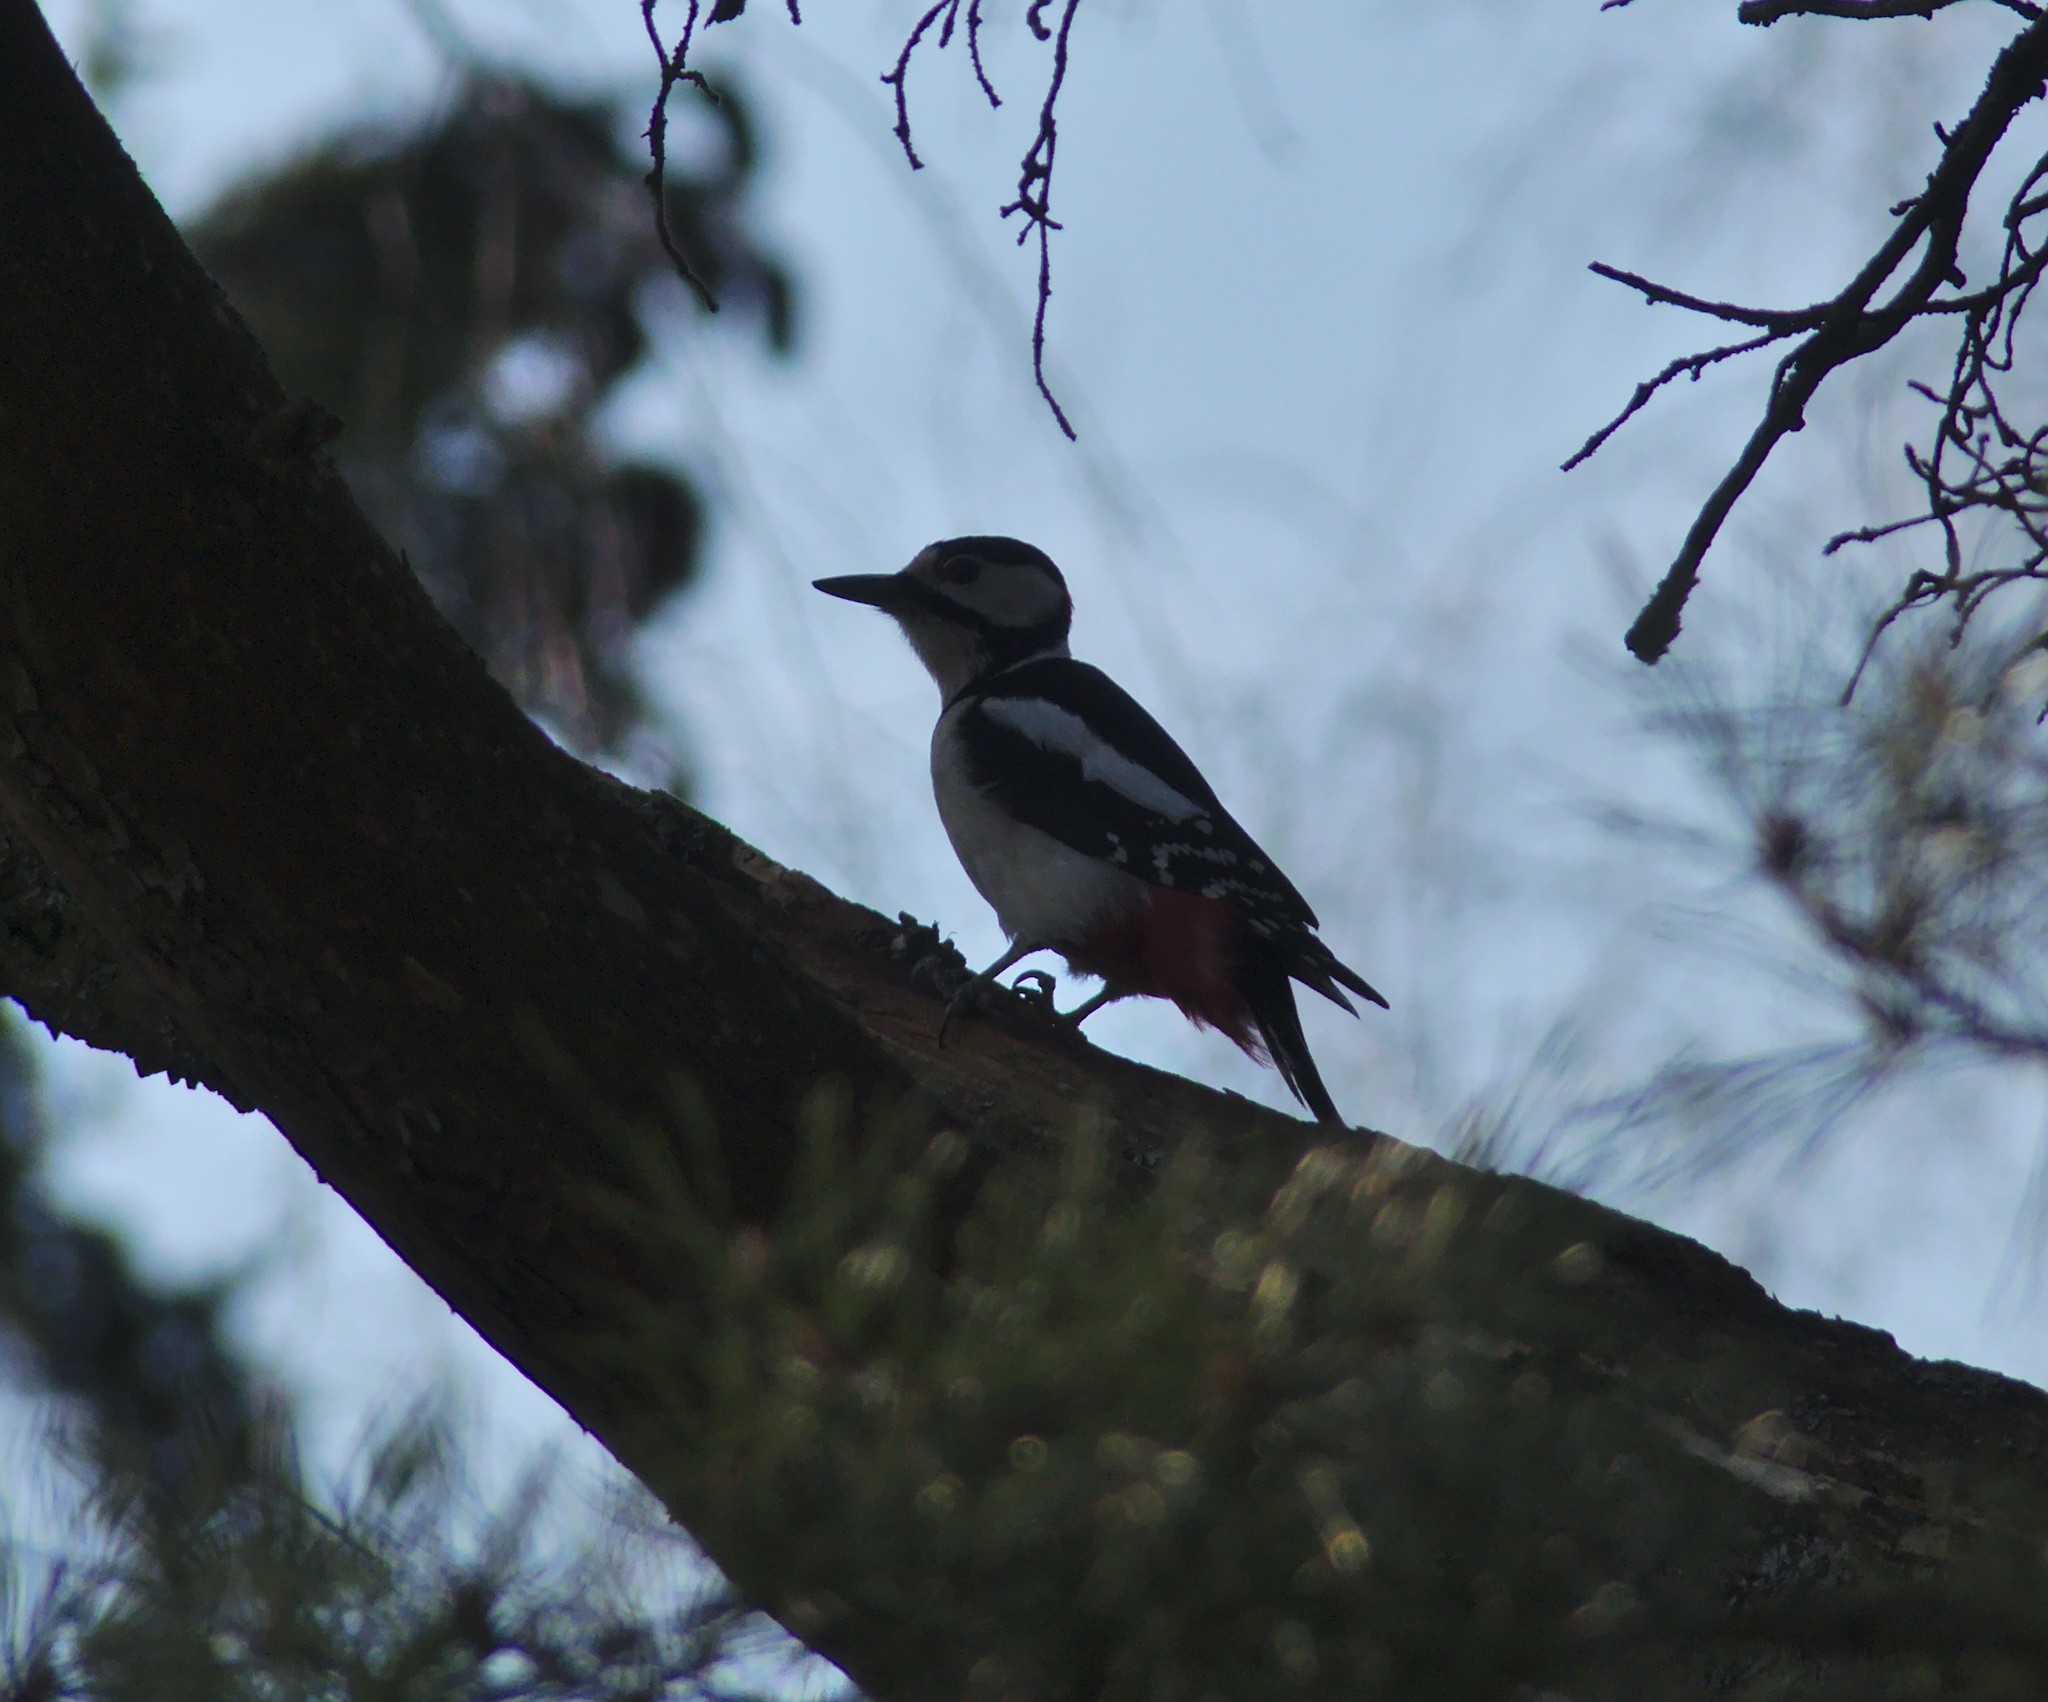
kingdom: Animalia
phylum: Chordata
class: Aves
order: Piciformes
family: Picidae
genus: Dendrocopos
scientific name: Dendrocopos major
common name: Great spotted woodpecker
